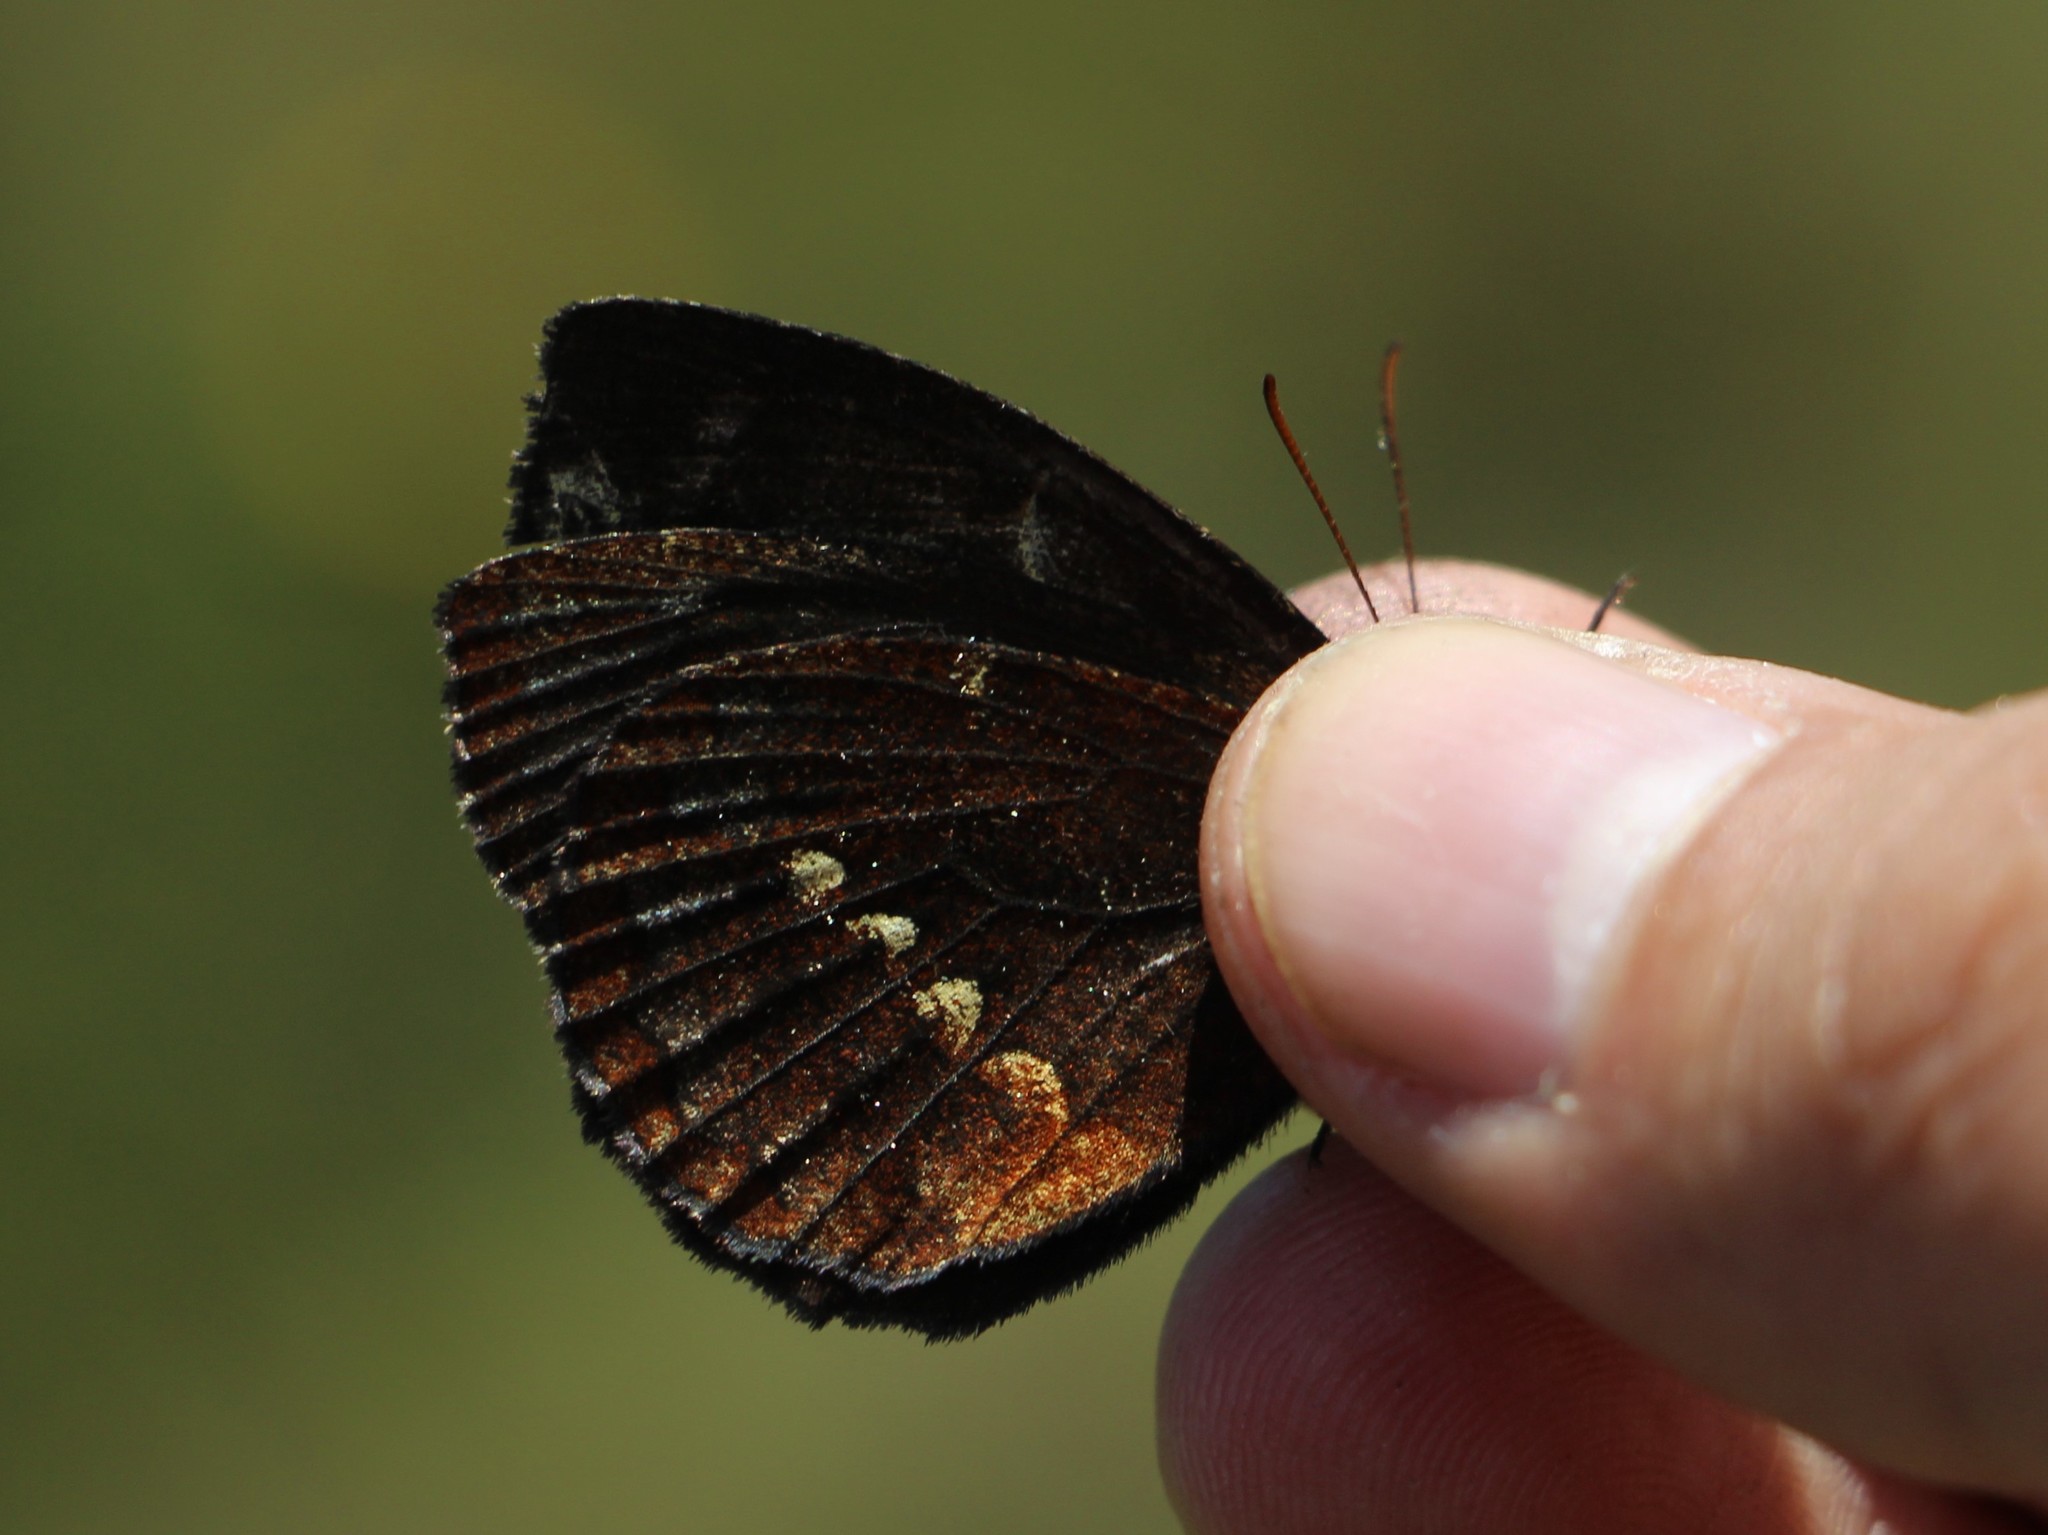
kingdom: Animalia
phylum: Arthropoda
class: Insecta
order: Lepidoptera
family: Nymphalidae
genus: Altopedaliodes
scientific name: Altopedaliodes
